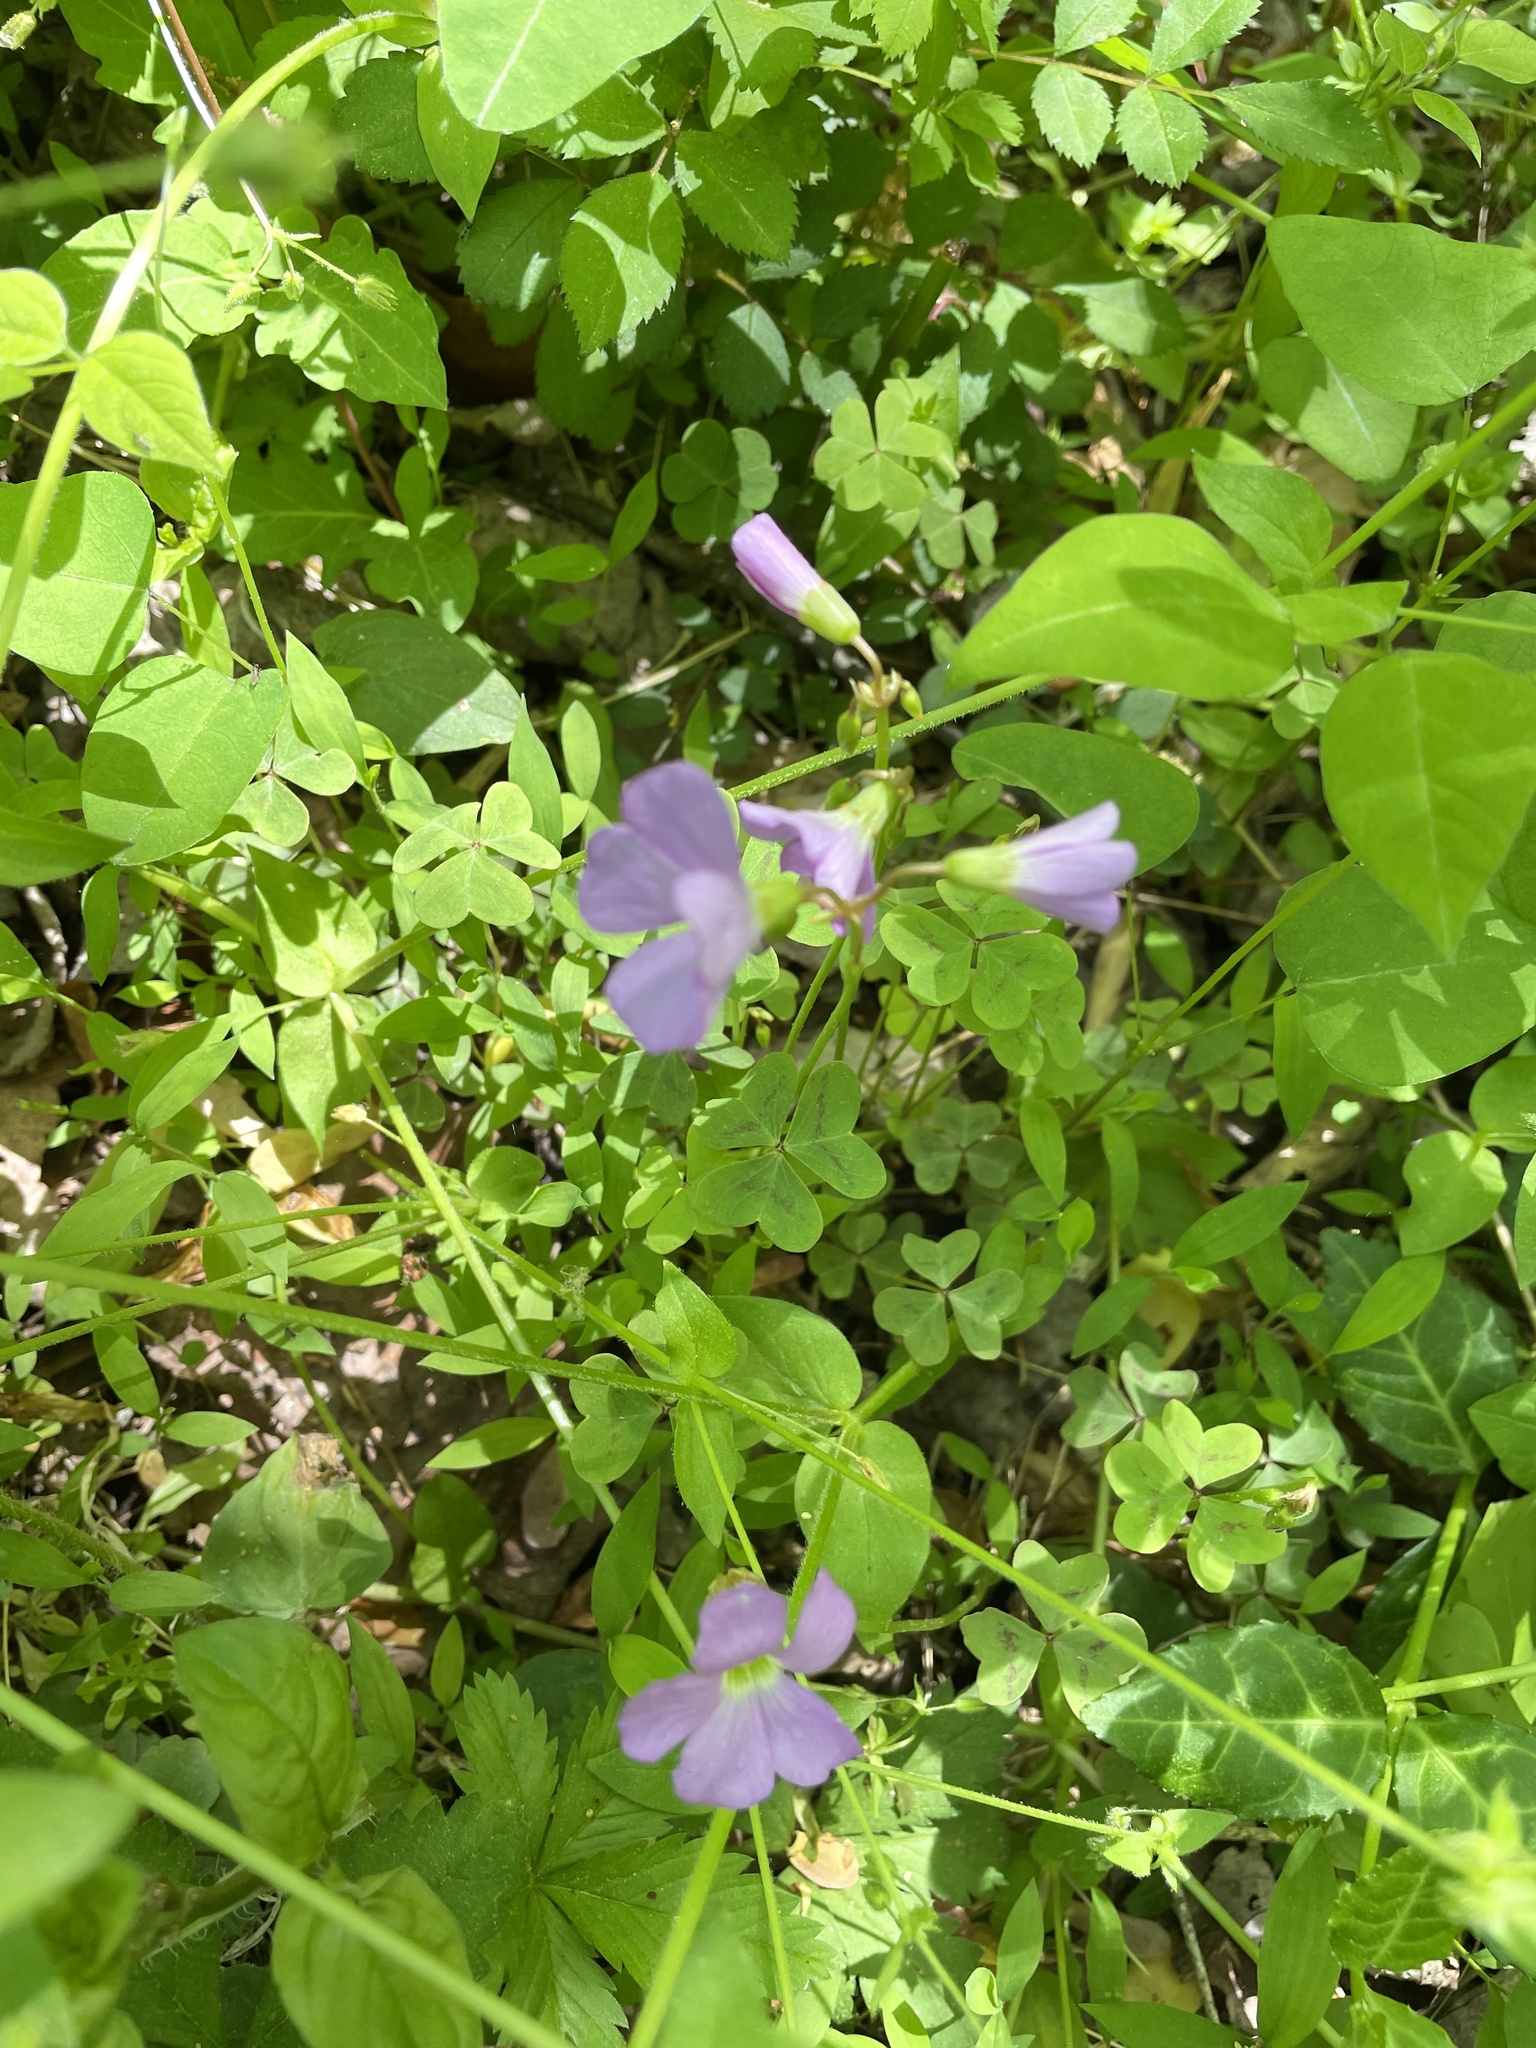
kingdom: Plantae
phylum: Tracheophyta
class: Magnoliopsida
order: Oxalidales
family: Oxalidaceae
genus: Oxalis
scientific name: Oxalis violacea
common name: Violet wood-sorrel
